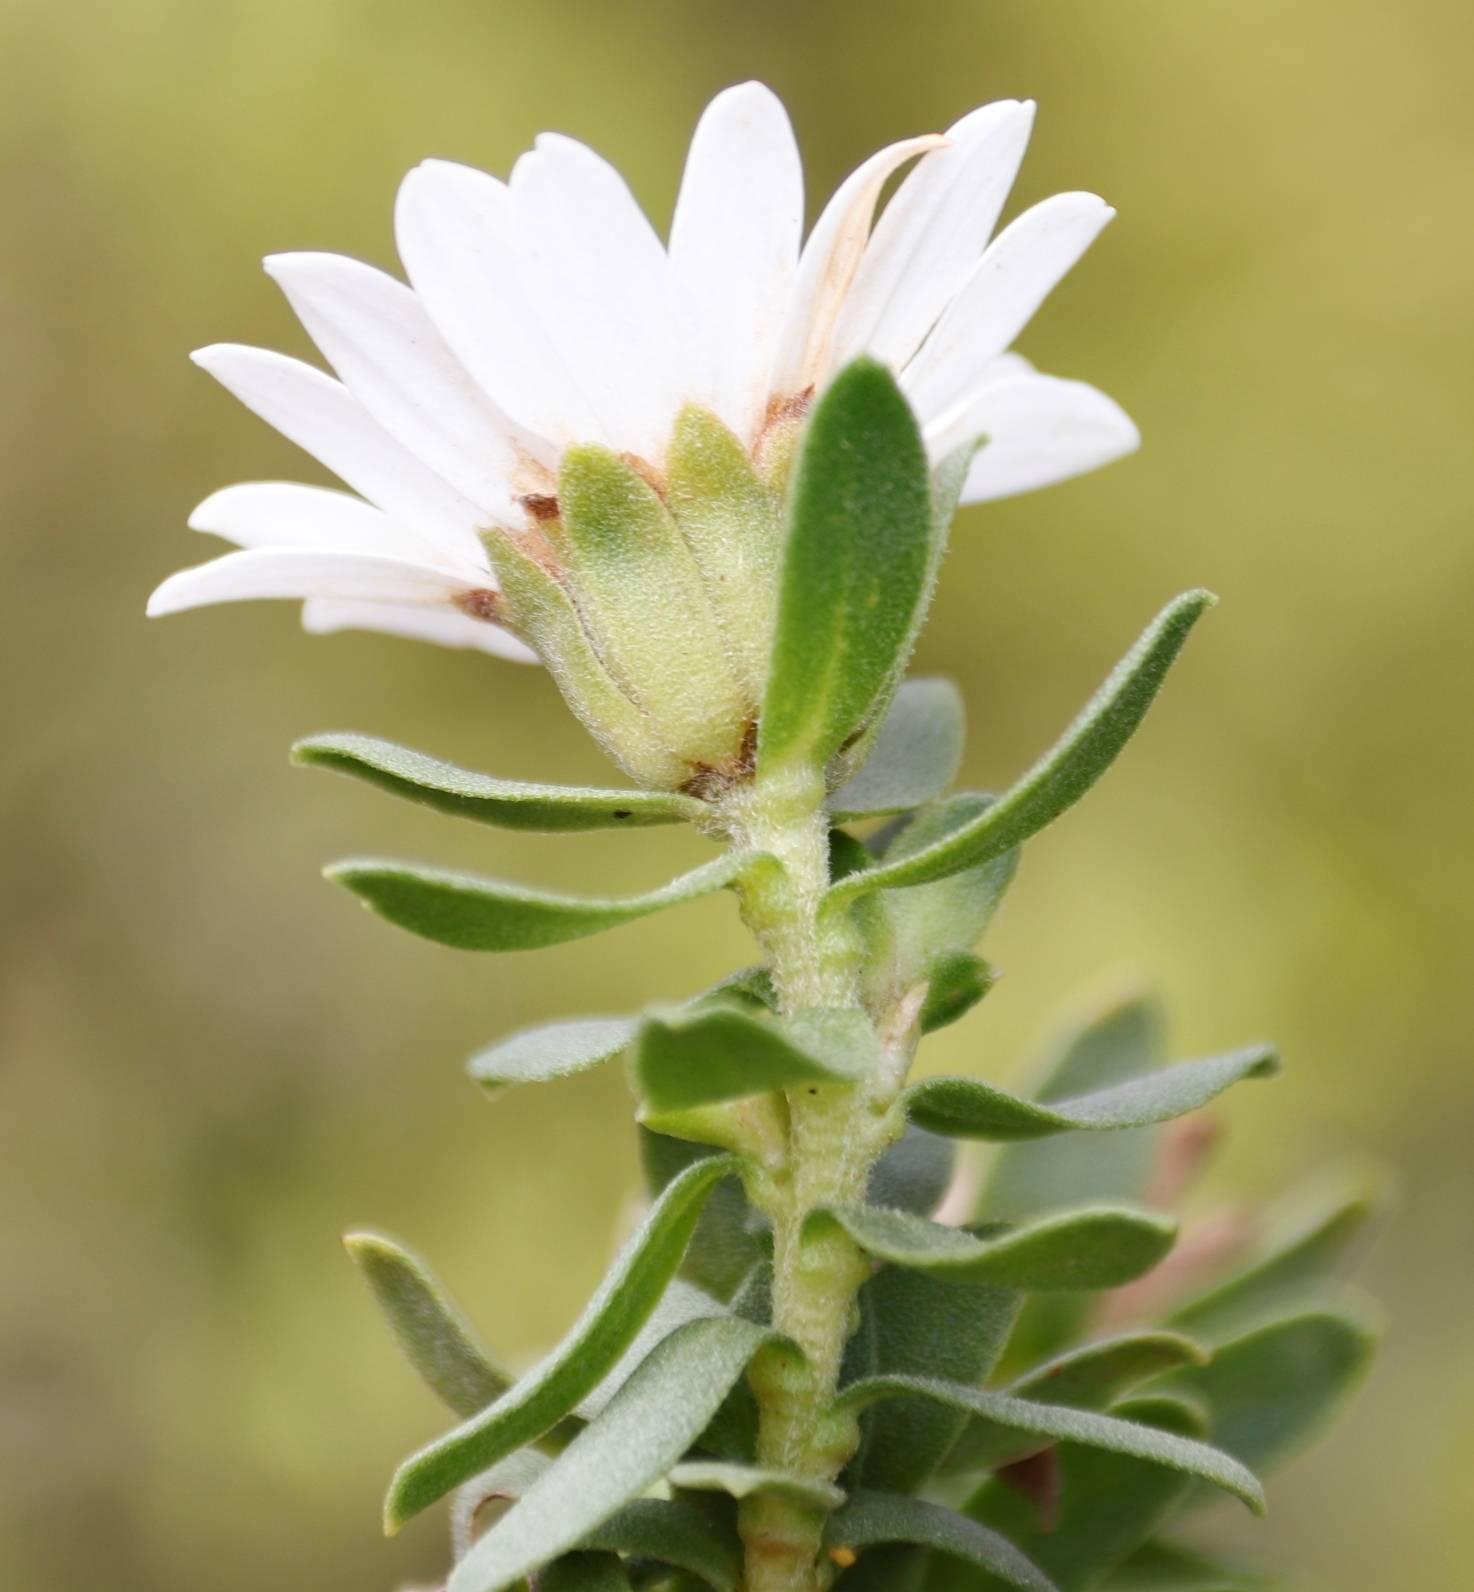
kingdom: Plantae
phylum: Tracheophyta
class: Magnoliopsida
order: Asterales
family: Asteraceae
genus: Osmitopsis
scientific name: Osmitopsis asteriscoides
